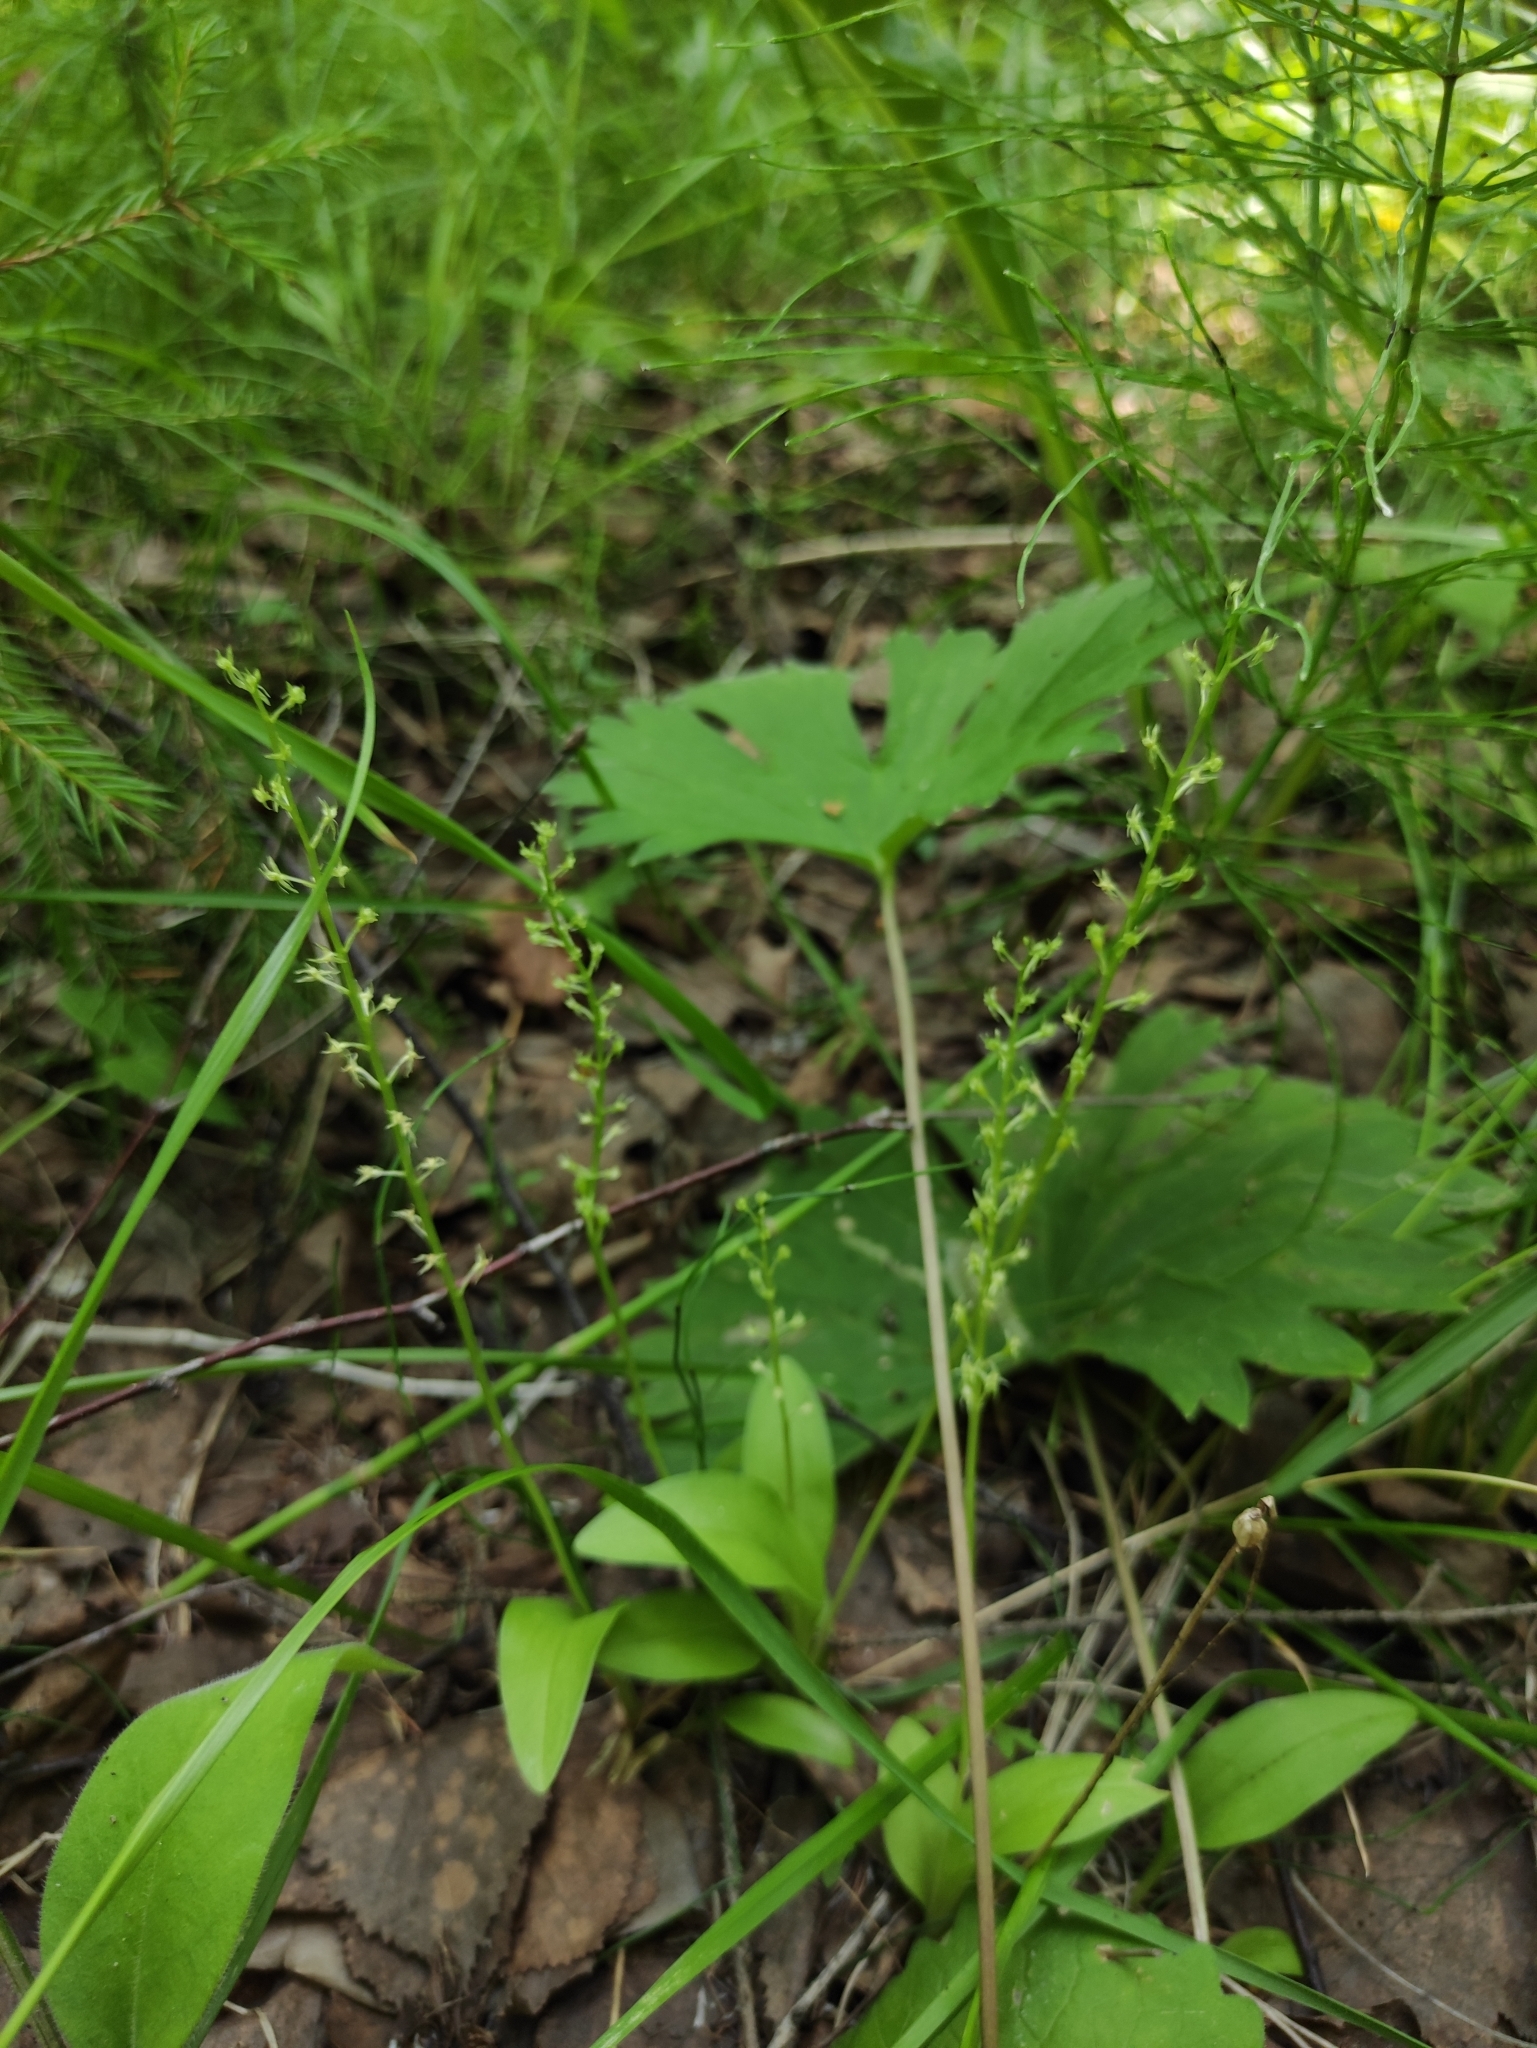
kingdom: Plantae
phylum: Tracheophyta
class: Liliopsida
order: Asparagales
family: Orchidaceae
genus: Malaxis
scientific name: Malaxis monophyllos
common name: White adder's-mouth
